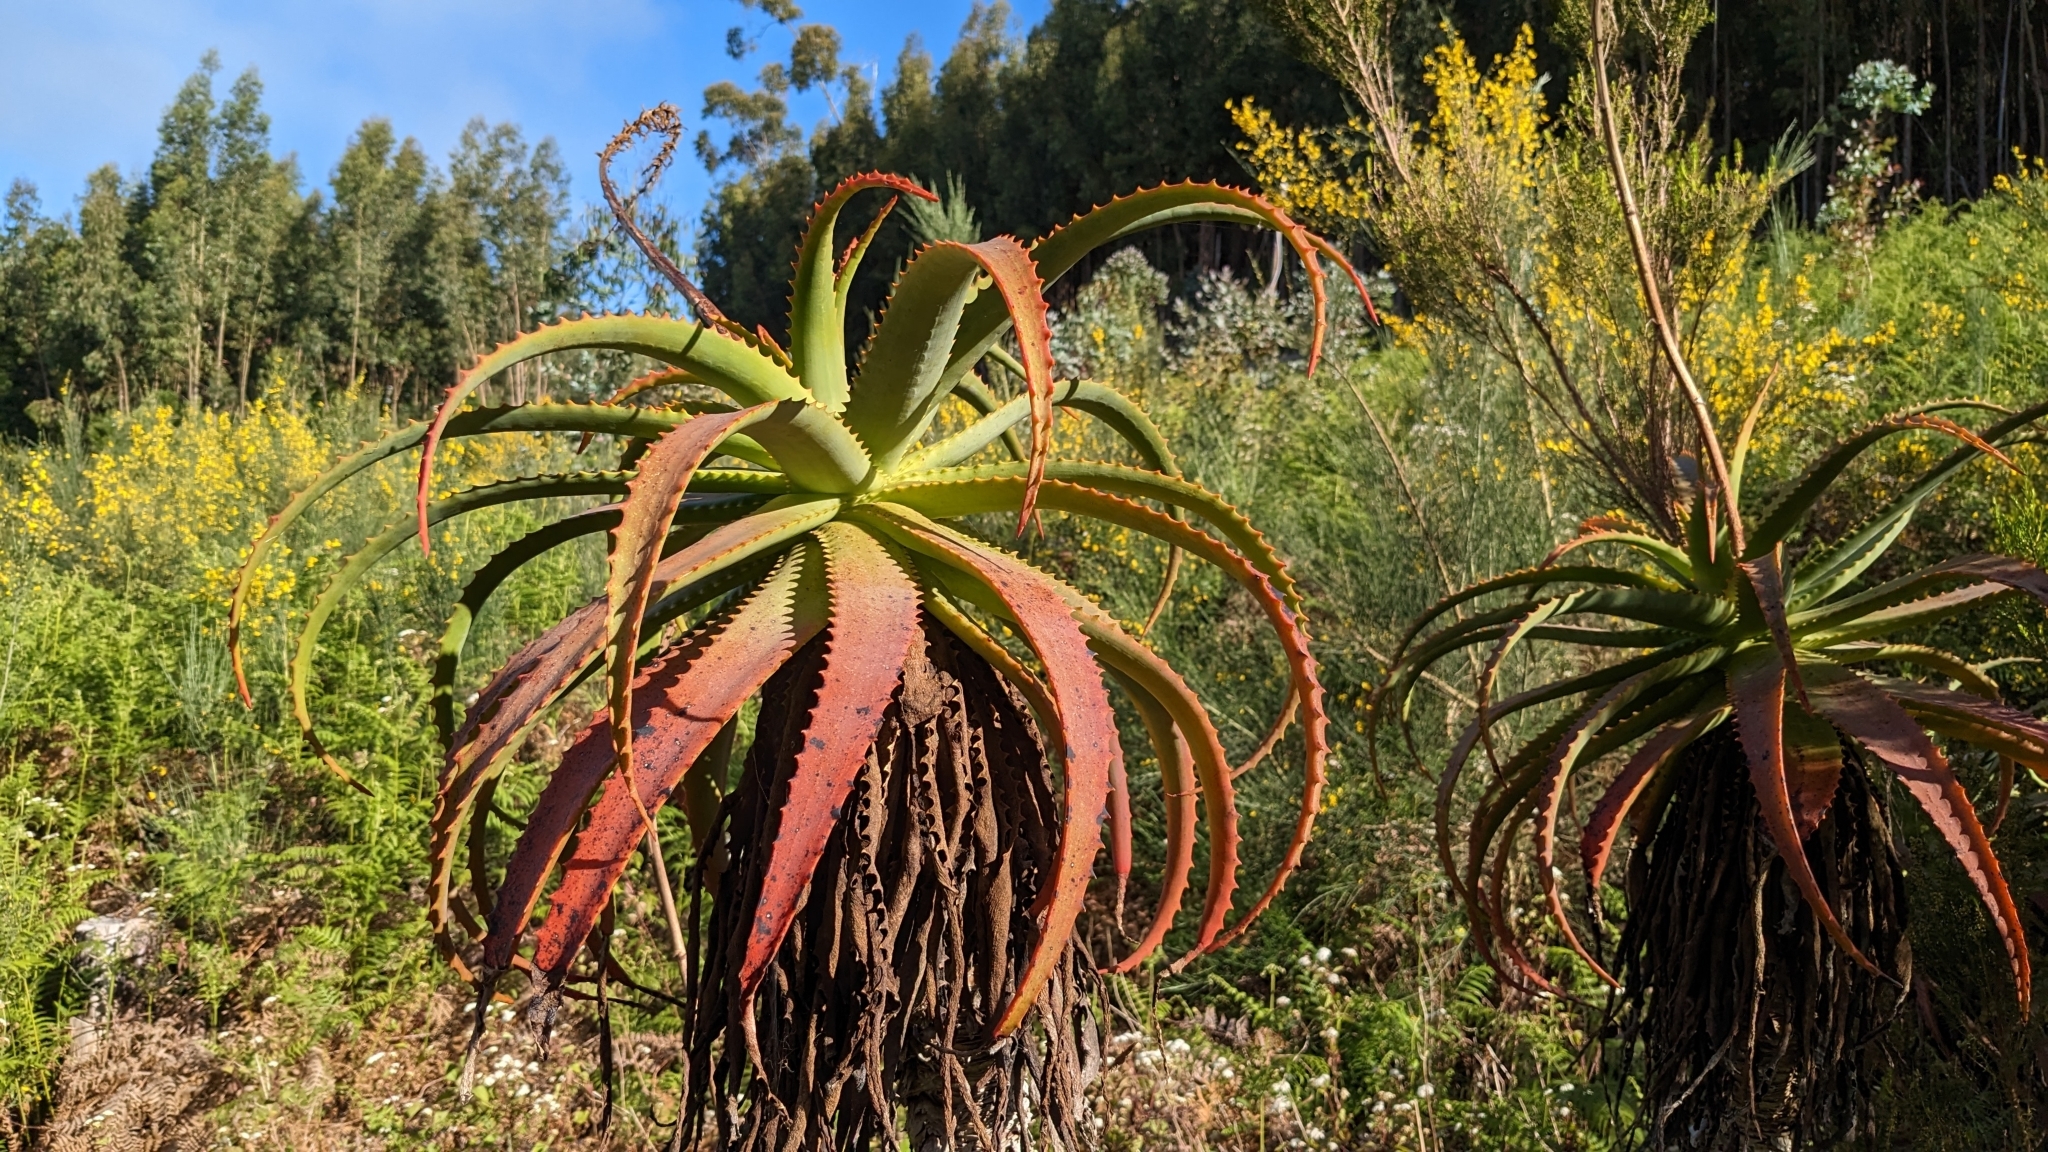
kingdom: Plantae
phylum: Tracheophyta
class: Liliopsida
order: Asparagales
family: Asphodelaceae
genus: Aloe
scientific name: Aloe arborescens
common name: Candelabra aloe
